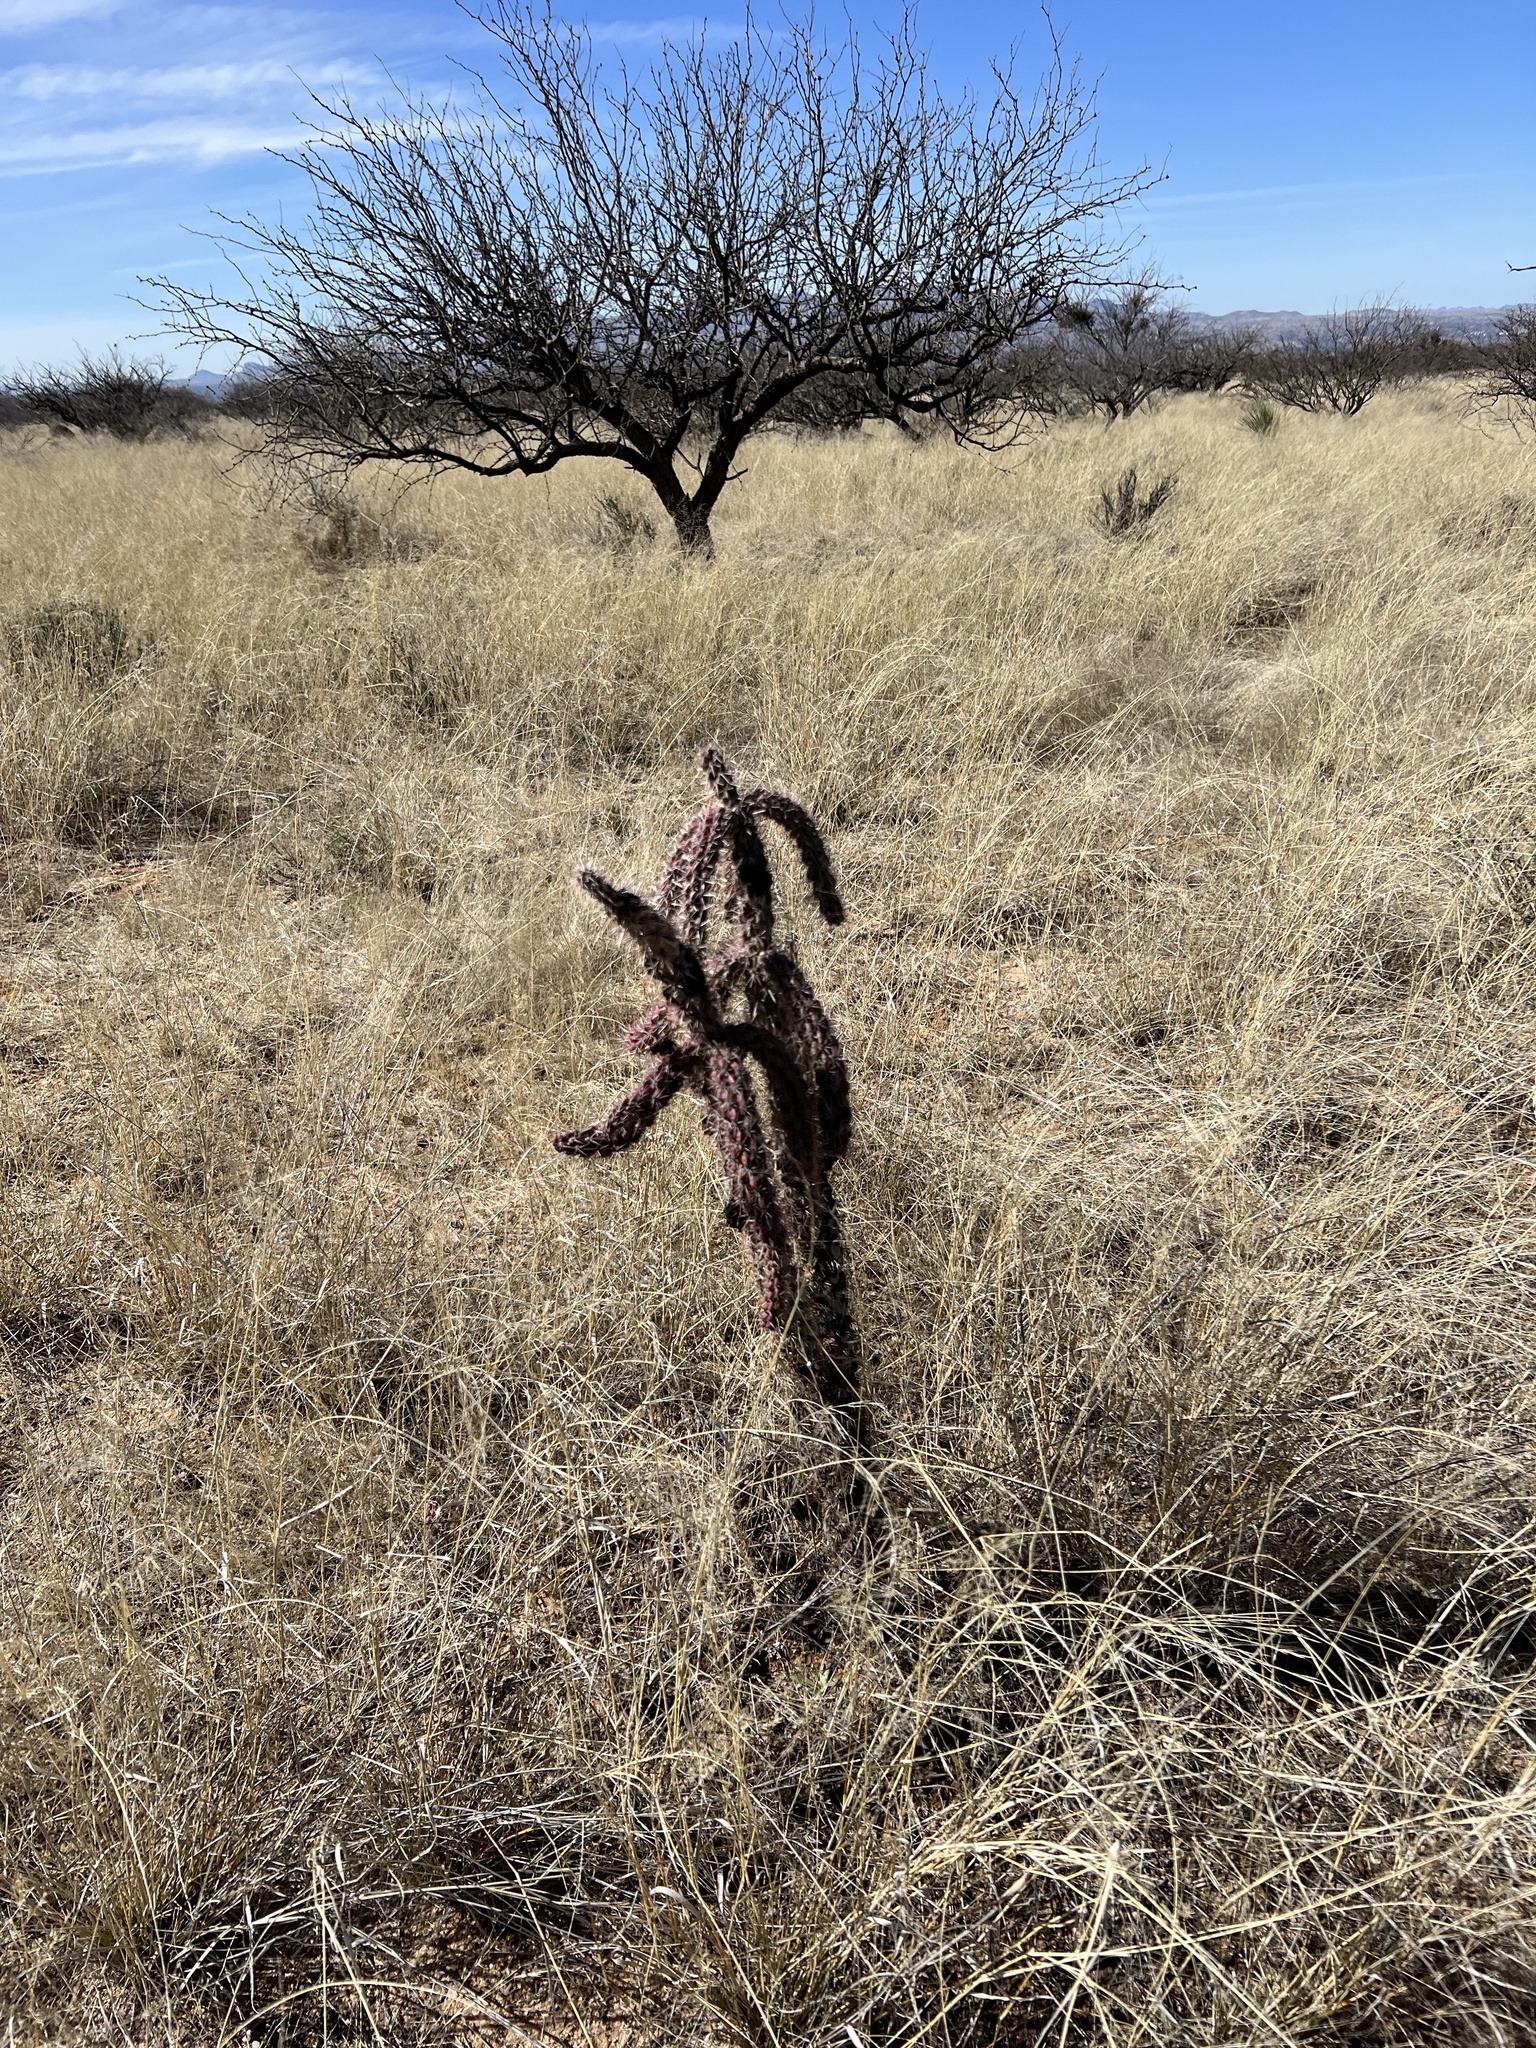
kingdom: Plantae
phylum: Tracheophyta
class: Magnoliopsida
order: Caryophyllales
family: Cactaceae
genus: Cylindropuntia
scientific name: Cylindropuntia imbricata
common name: Candelabrum cactus
